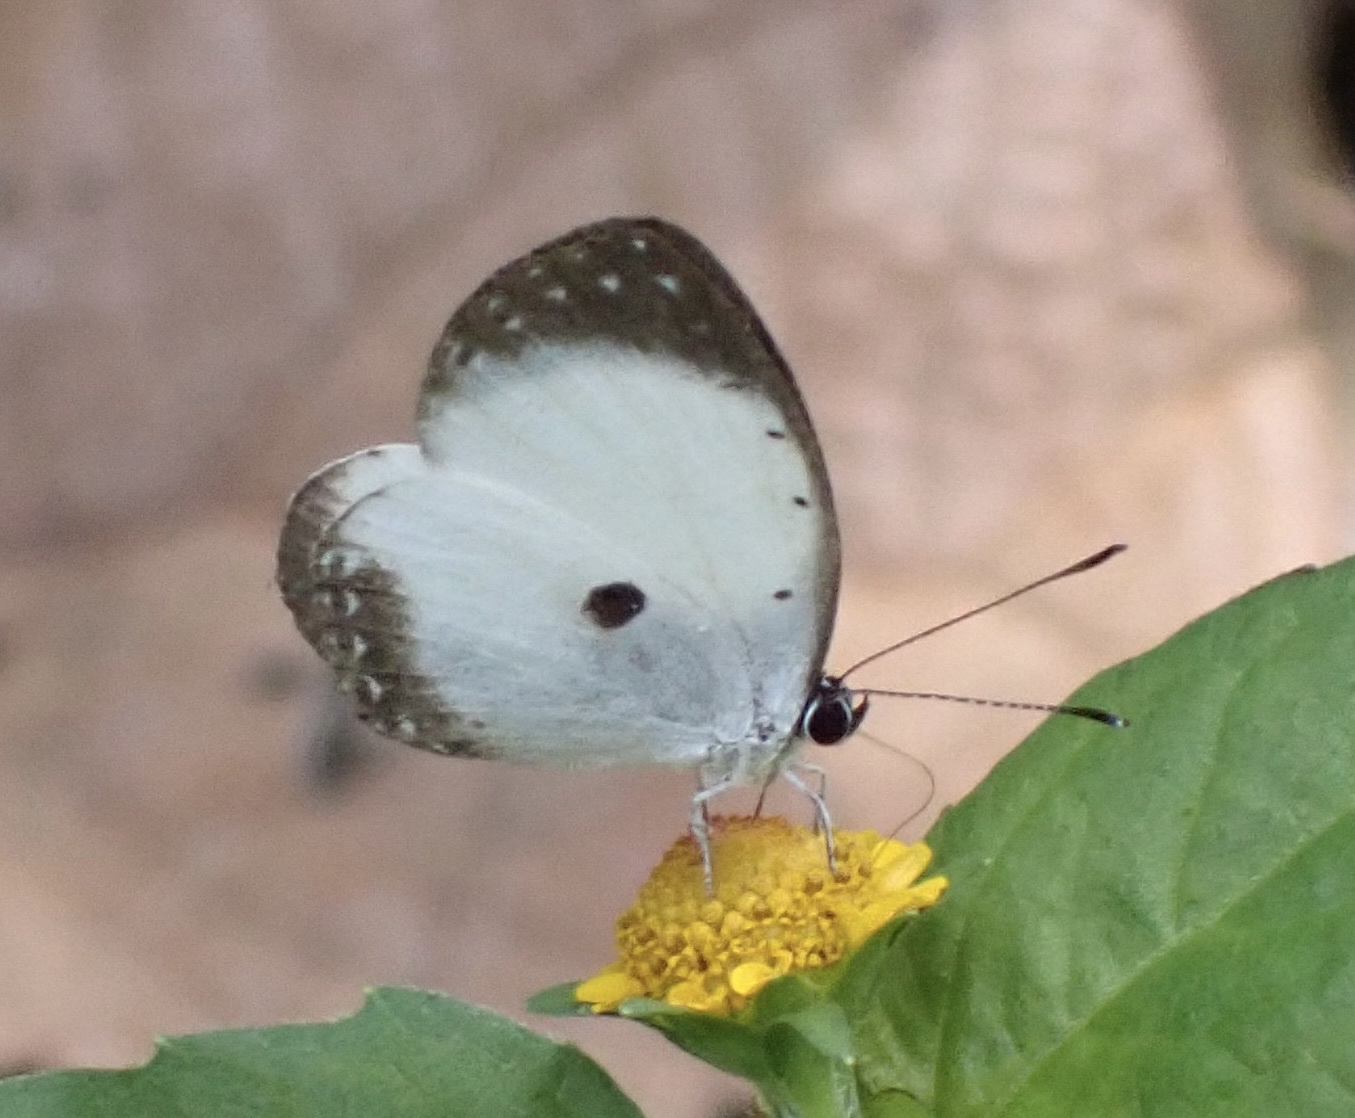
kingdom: Animalia
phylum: Arthropoda
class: Insecta
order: Lepidoptera
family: Lycaenidae
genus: Pithecops
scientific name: Pithecops dionisius
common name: Pied blue
